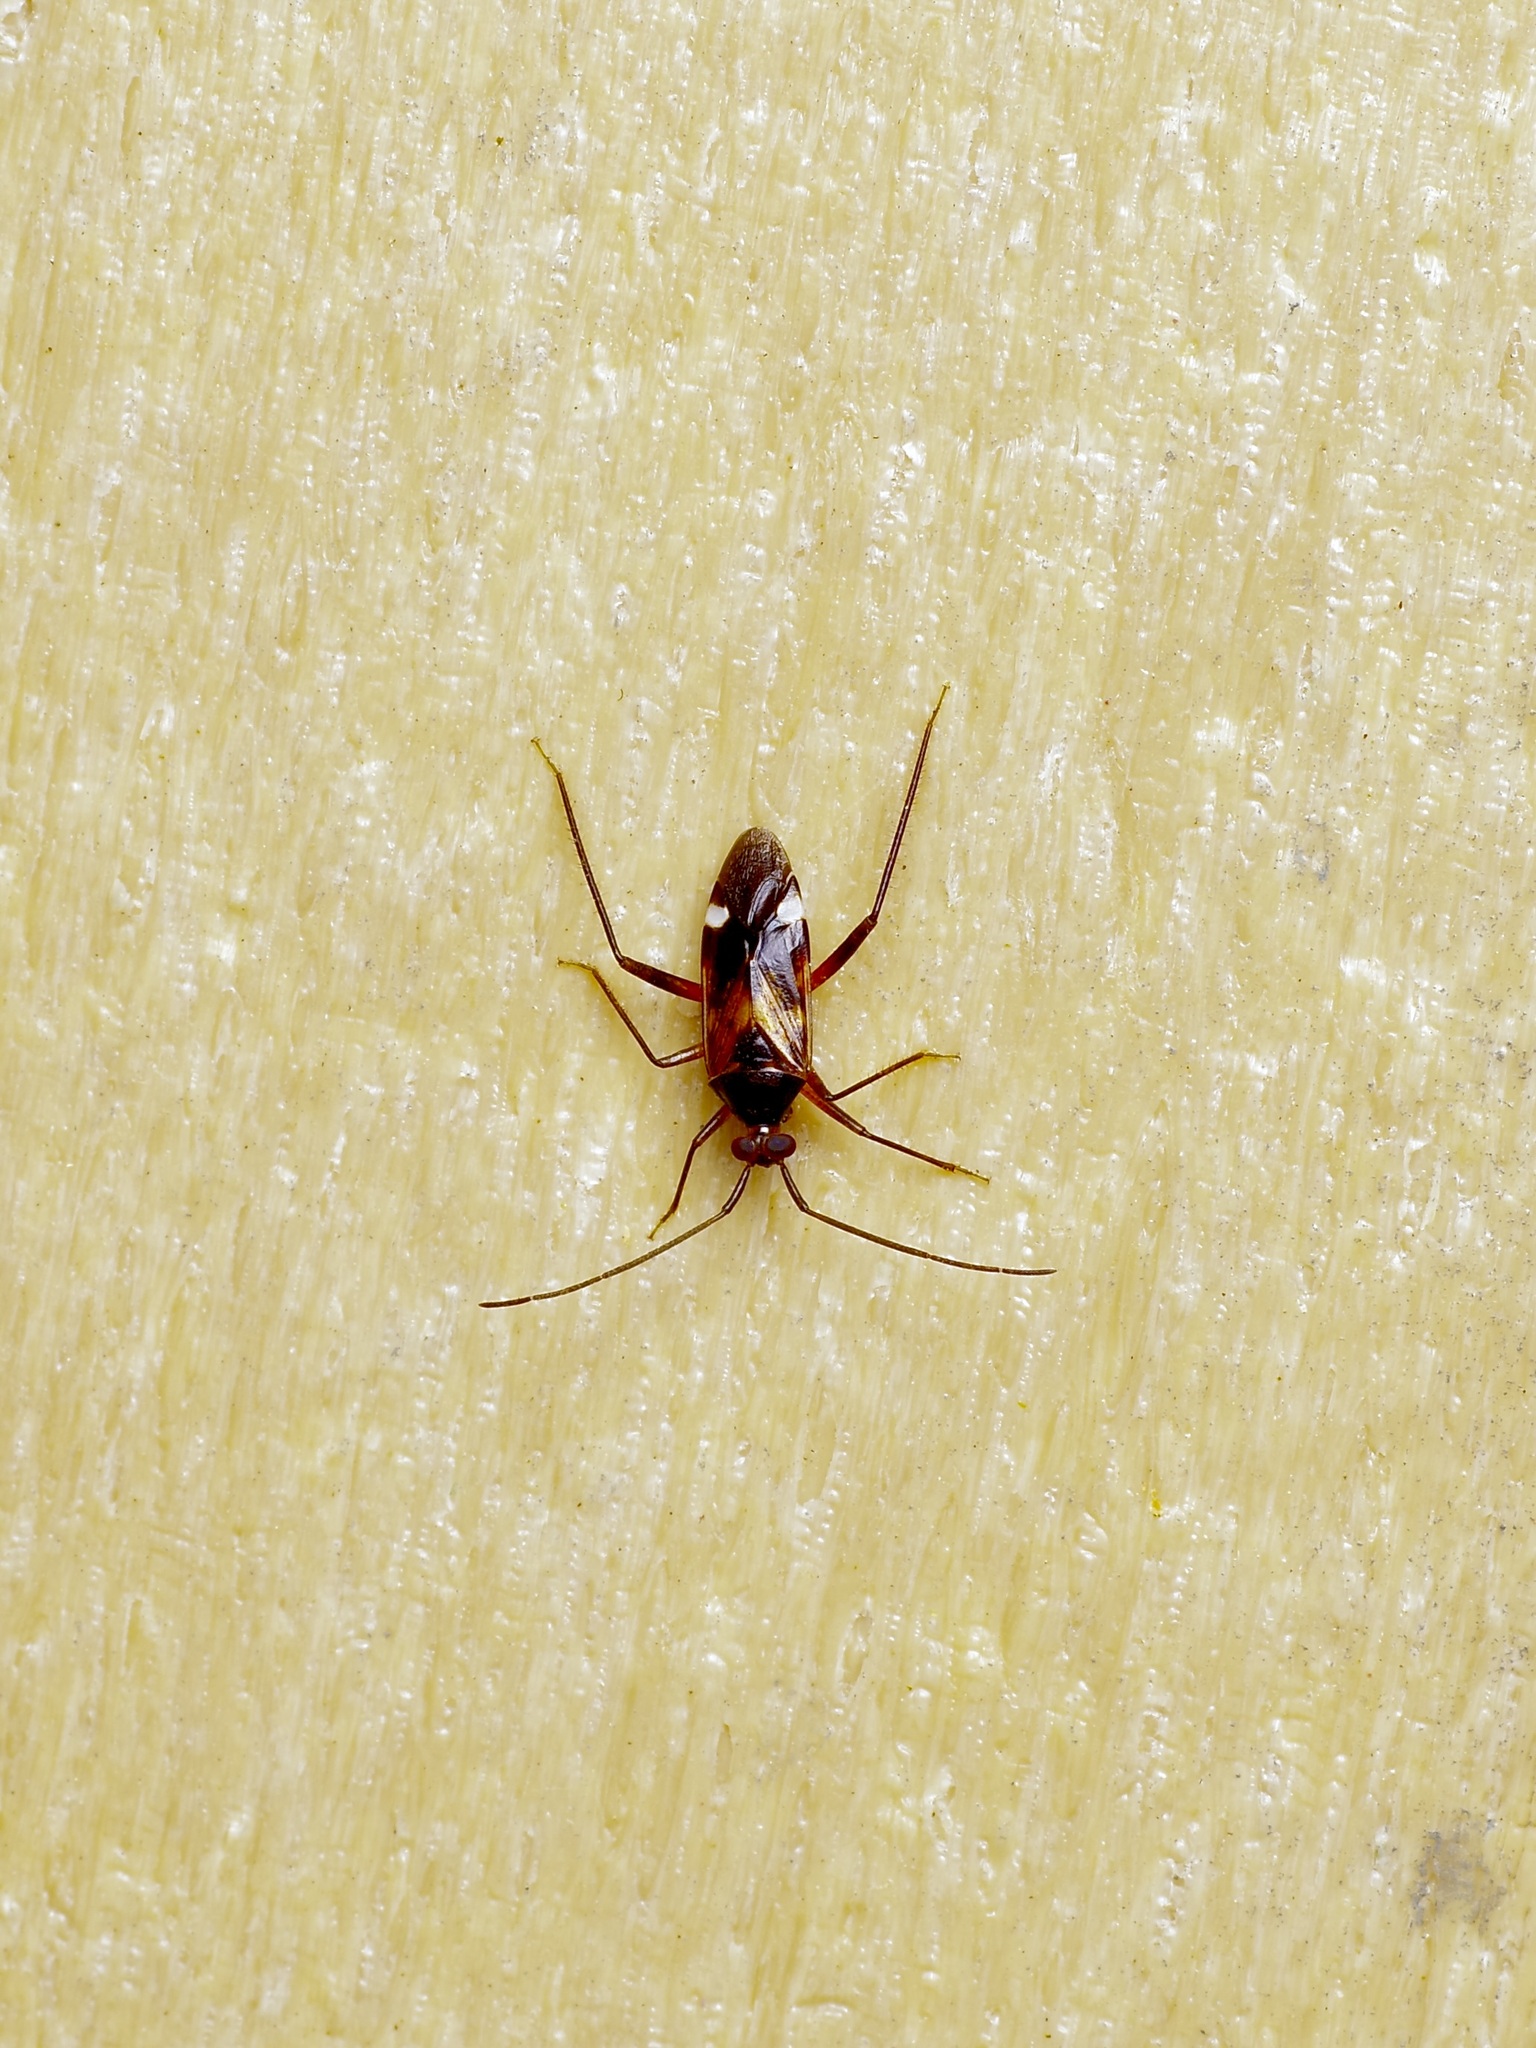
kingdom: Animalia
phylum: Arthropoda
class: Insecta
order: Hemiptera
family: Miridae
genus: Eustictus
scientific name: Eustictus knighti
